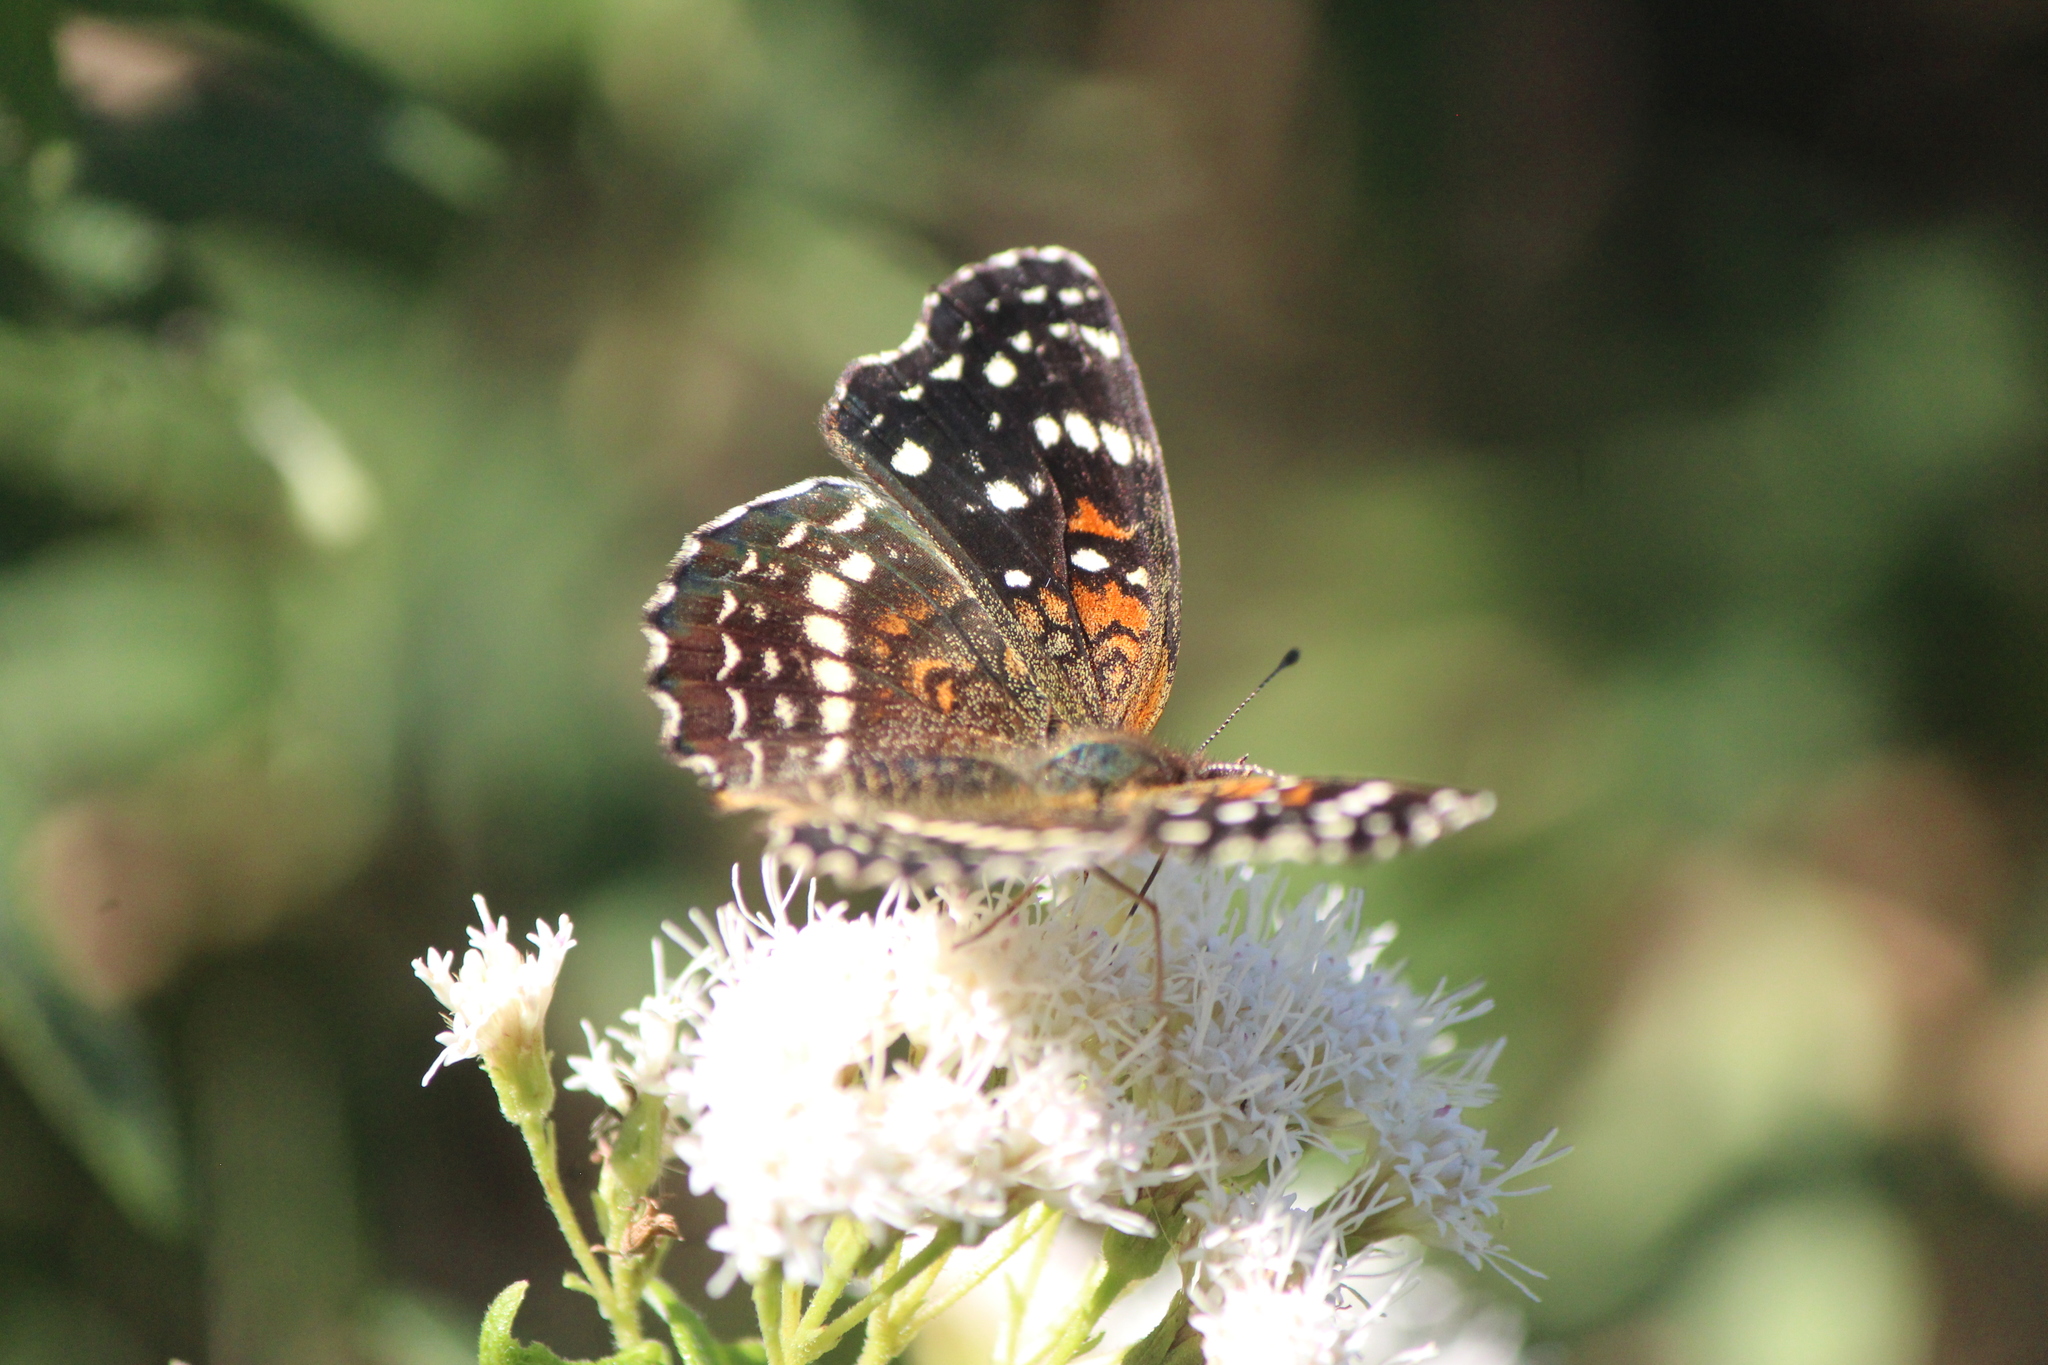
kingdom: Animalia
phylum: Arthropoda
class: Insecta
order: Lepidoptera
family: Nymphalidae
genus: Anthanassa
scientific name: Anthanassa texana
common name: Texan crescent
